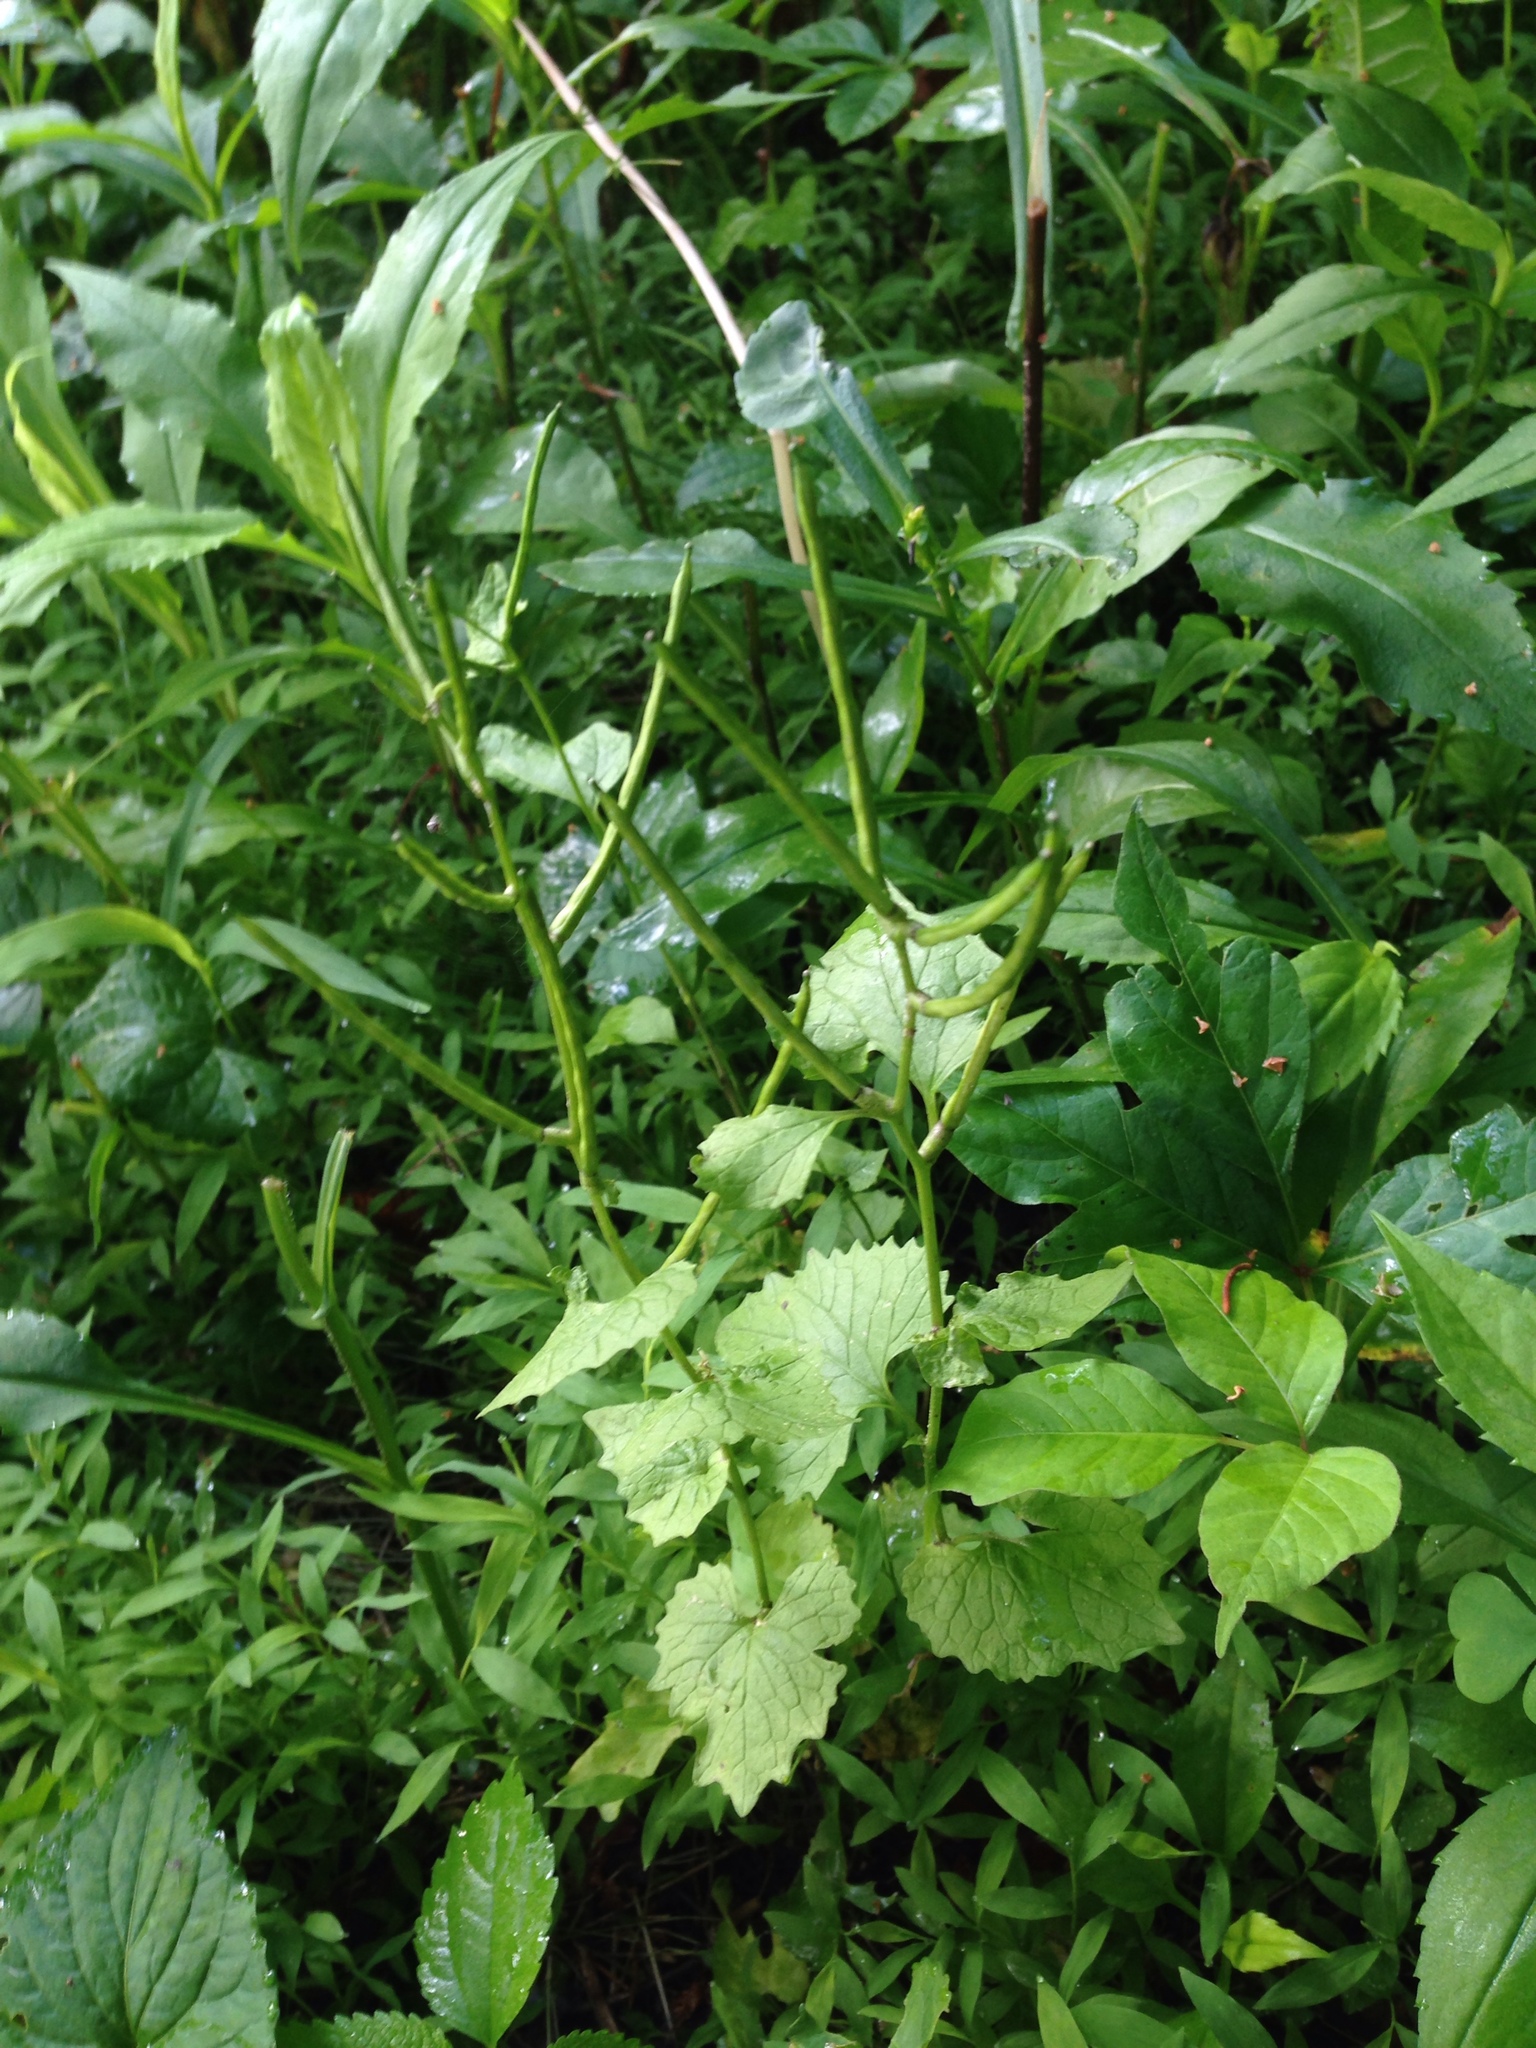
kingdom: Plantae
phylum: Tracheophyta
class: Magnoliopsida
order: Brassicales
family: Brassicaceae
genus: Alliaria
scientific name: Alliaria petiolata
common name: Garlic mustard
